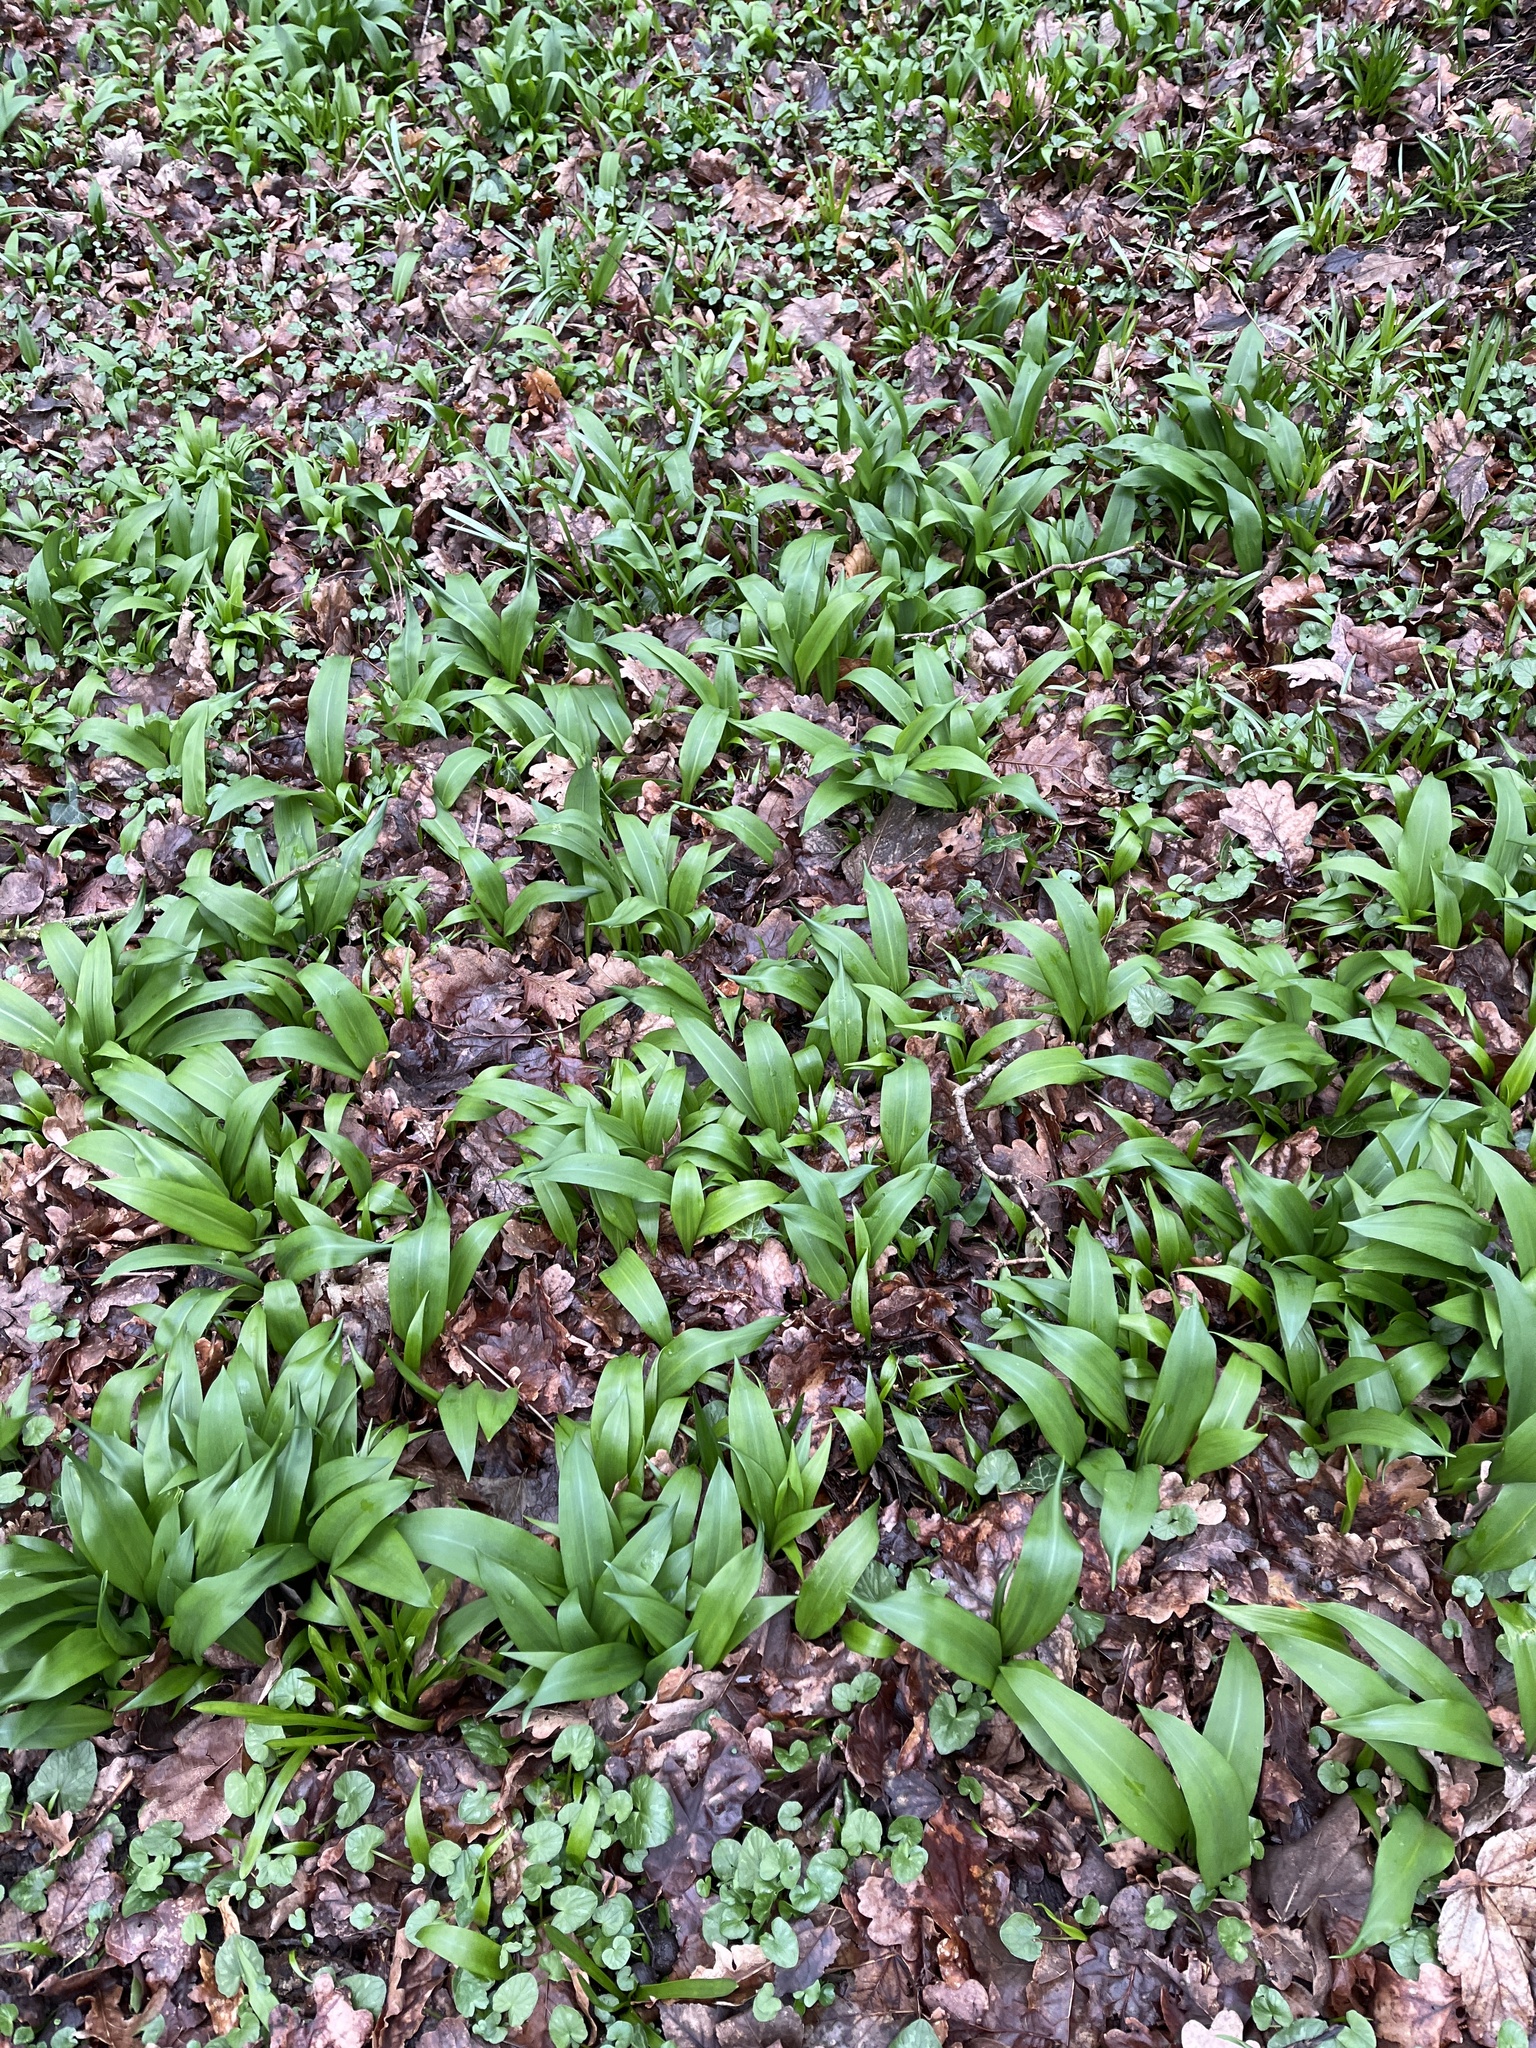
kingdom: Plantae
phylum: Tracheophyta
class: Liliopsida
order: Asparagales
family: Amaryllidaceae
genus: Allium
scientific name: Allium ursinum
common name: Ramsons
